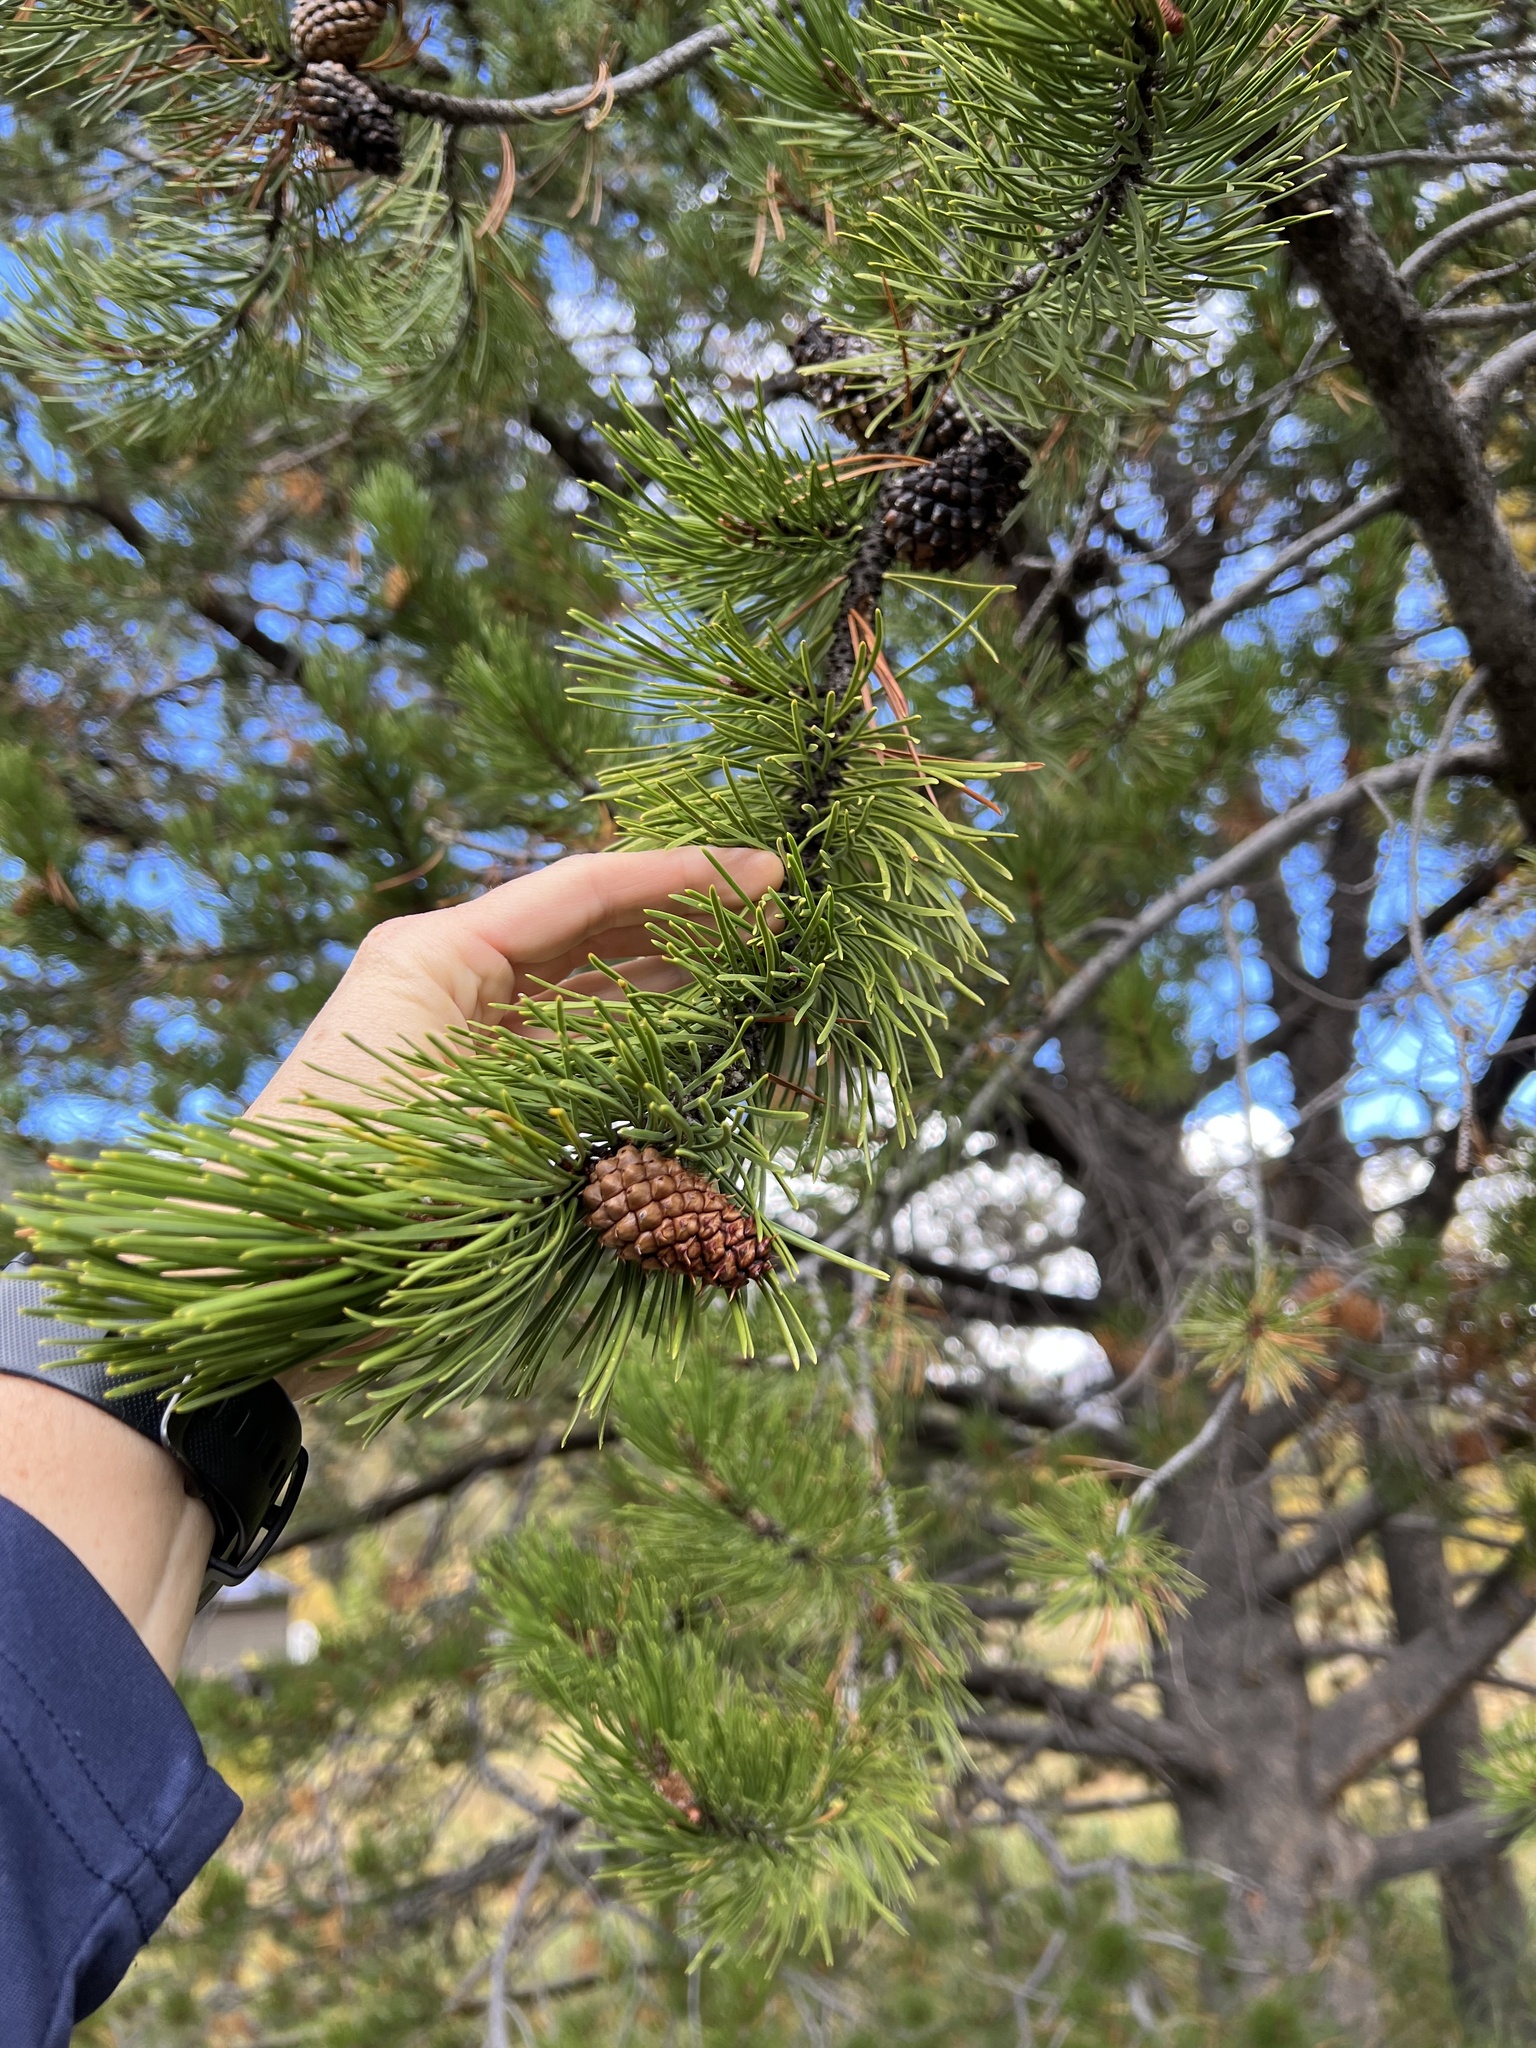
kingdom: Plantae
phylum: Tracheophyta
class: Pinopsida
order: Pinales
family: Pinaceae
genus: Pinus
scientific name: Pinus contorta
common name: Lodgepole pine
